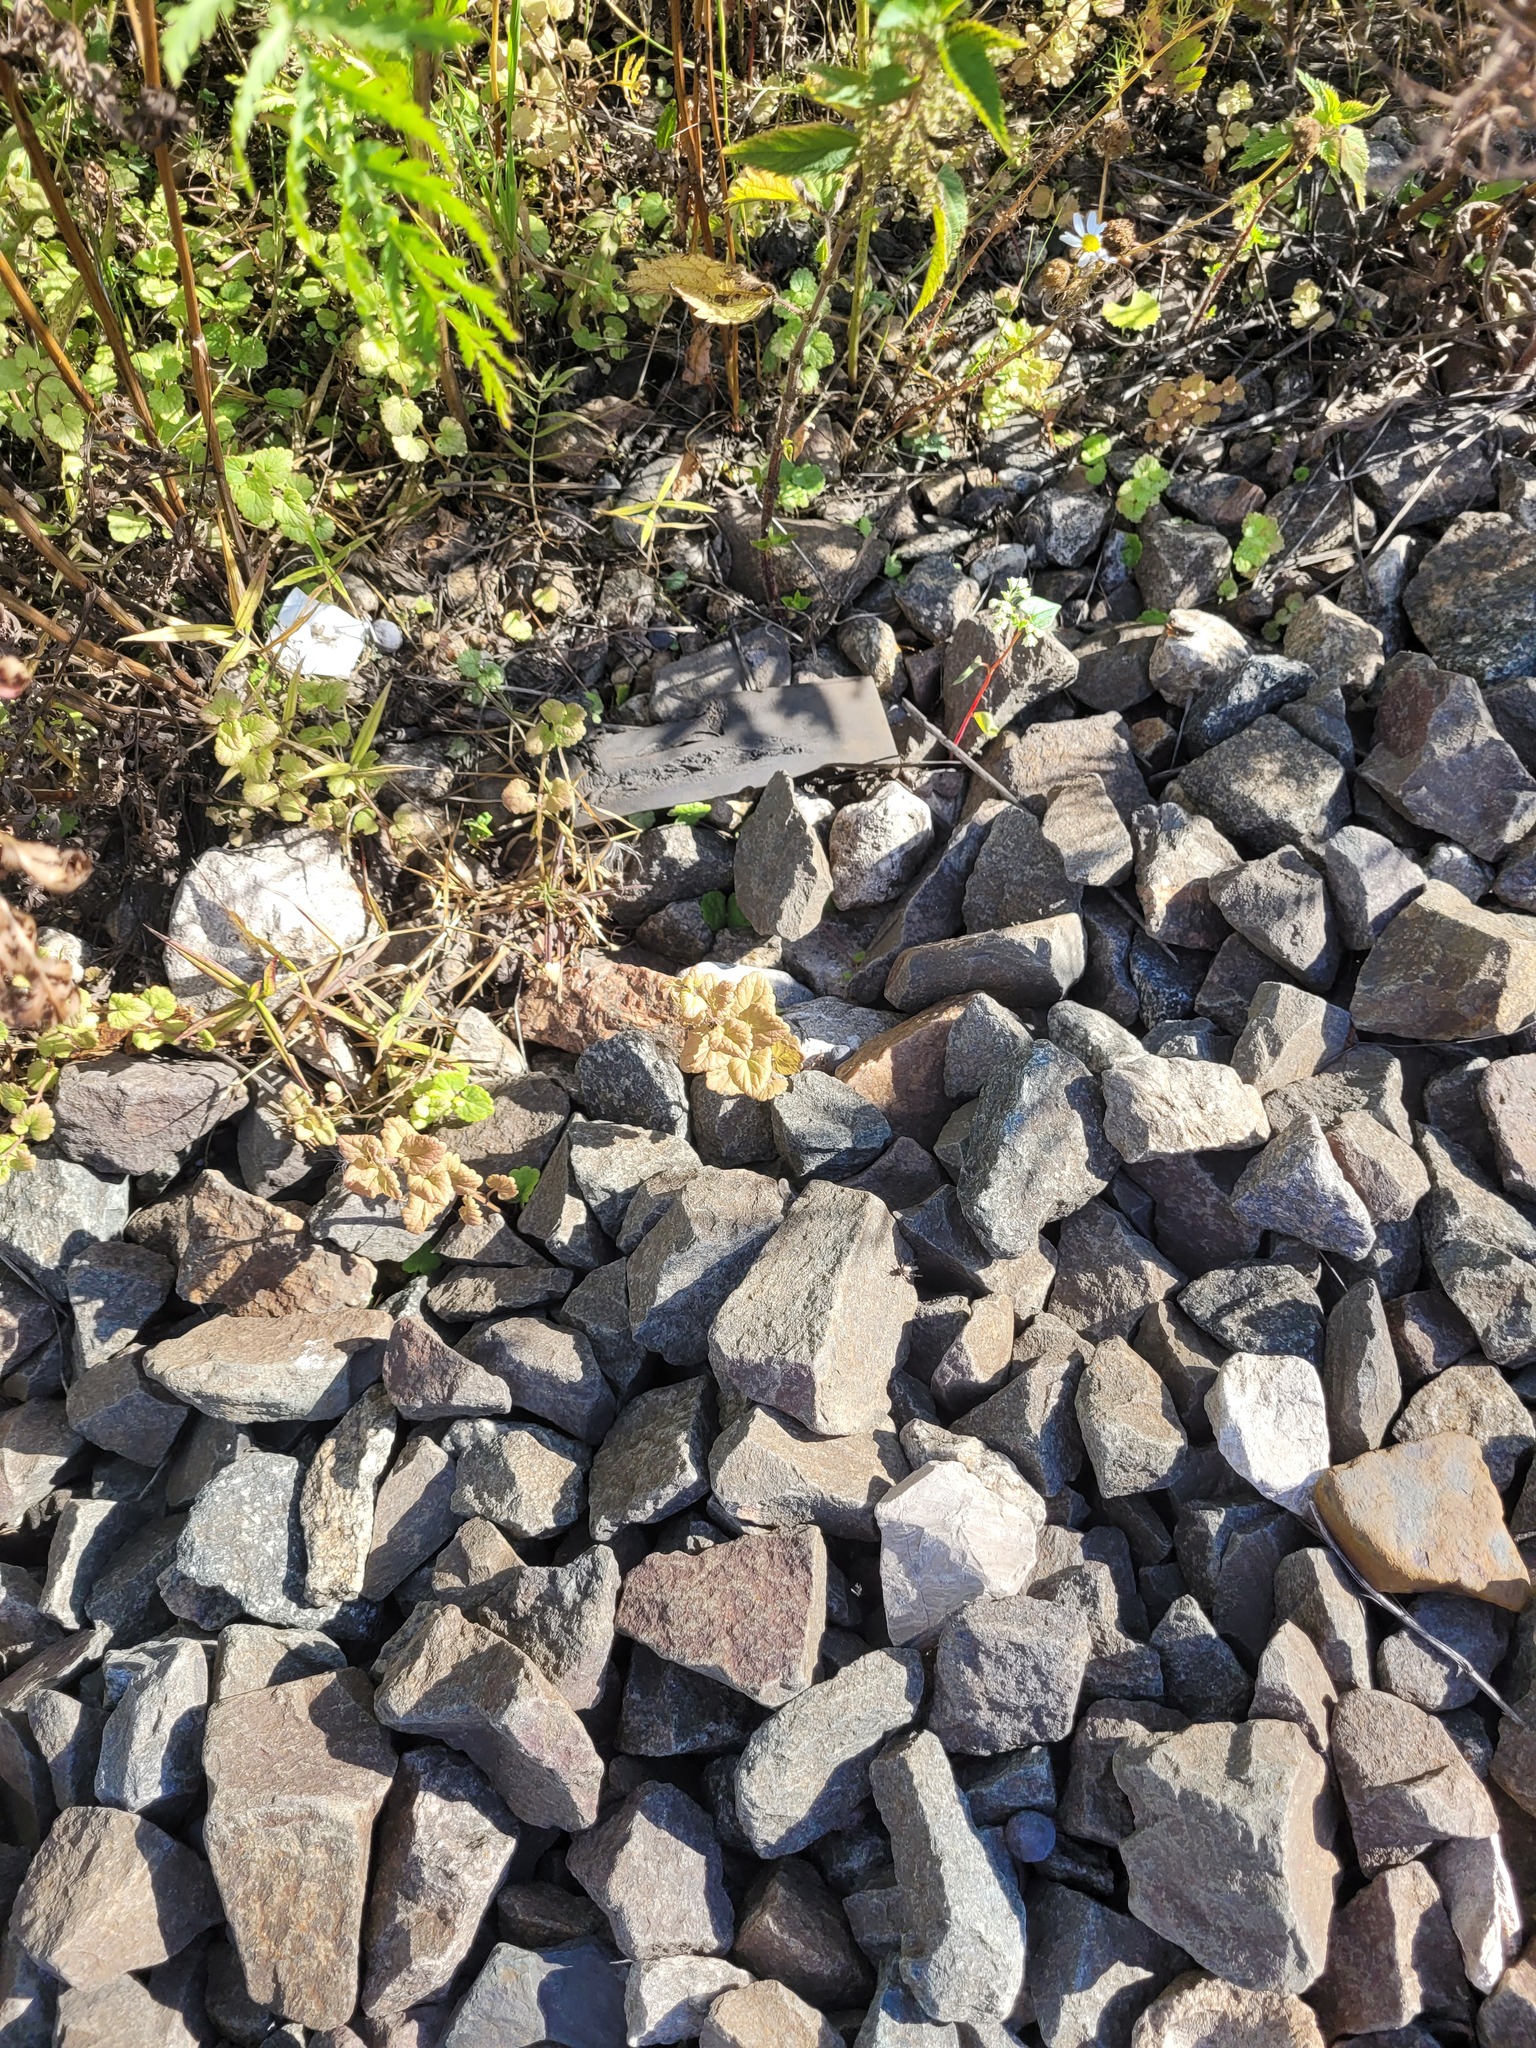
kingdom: Plantae
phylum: Tracheophyta
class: Magnoliopsida
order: Lamiales
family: Lamiaceae
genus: Glechoma
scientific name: Glechoma hederacea
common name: Ground ivy
